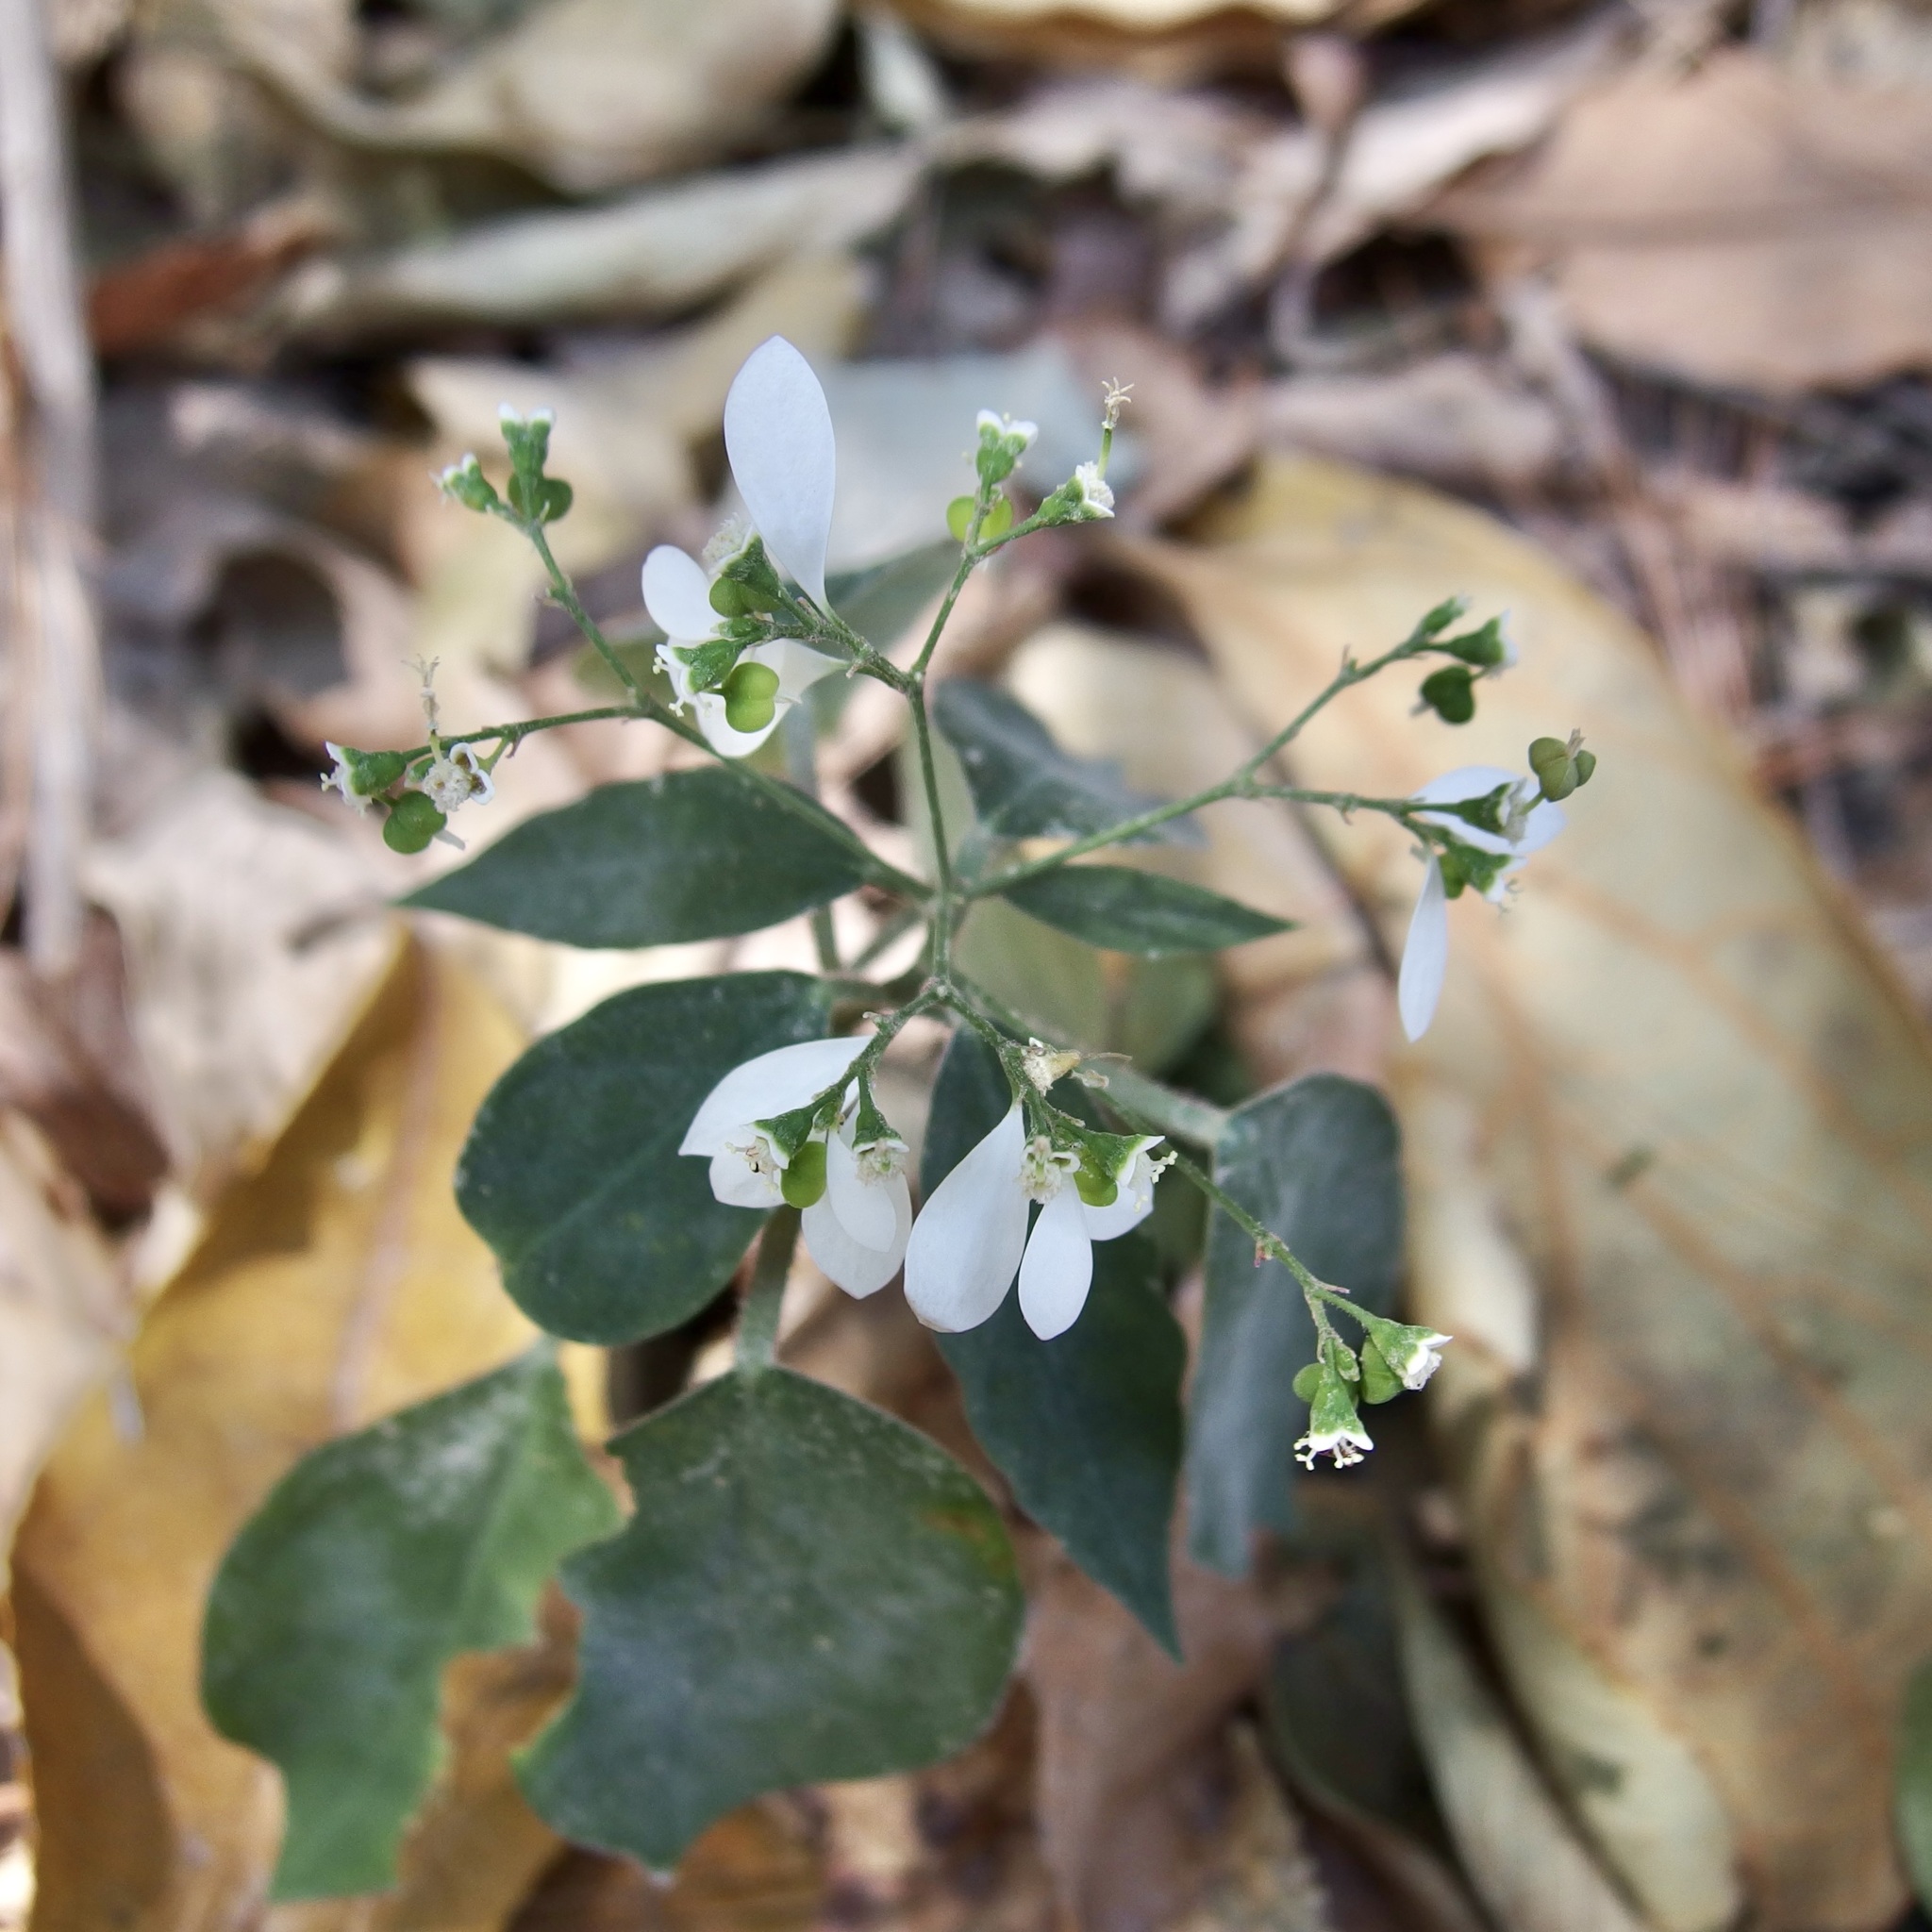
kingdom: Plantae
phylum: Tracheophyta
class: Magnoliopsida
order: Malpighiales
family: Euphorbiaceae
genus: Euphorbia
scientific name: Euphorbia graminea
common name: Grassleaf spurge
